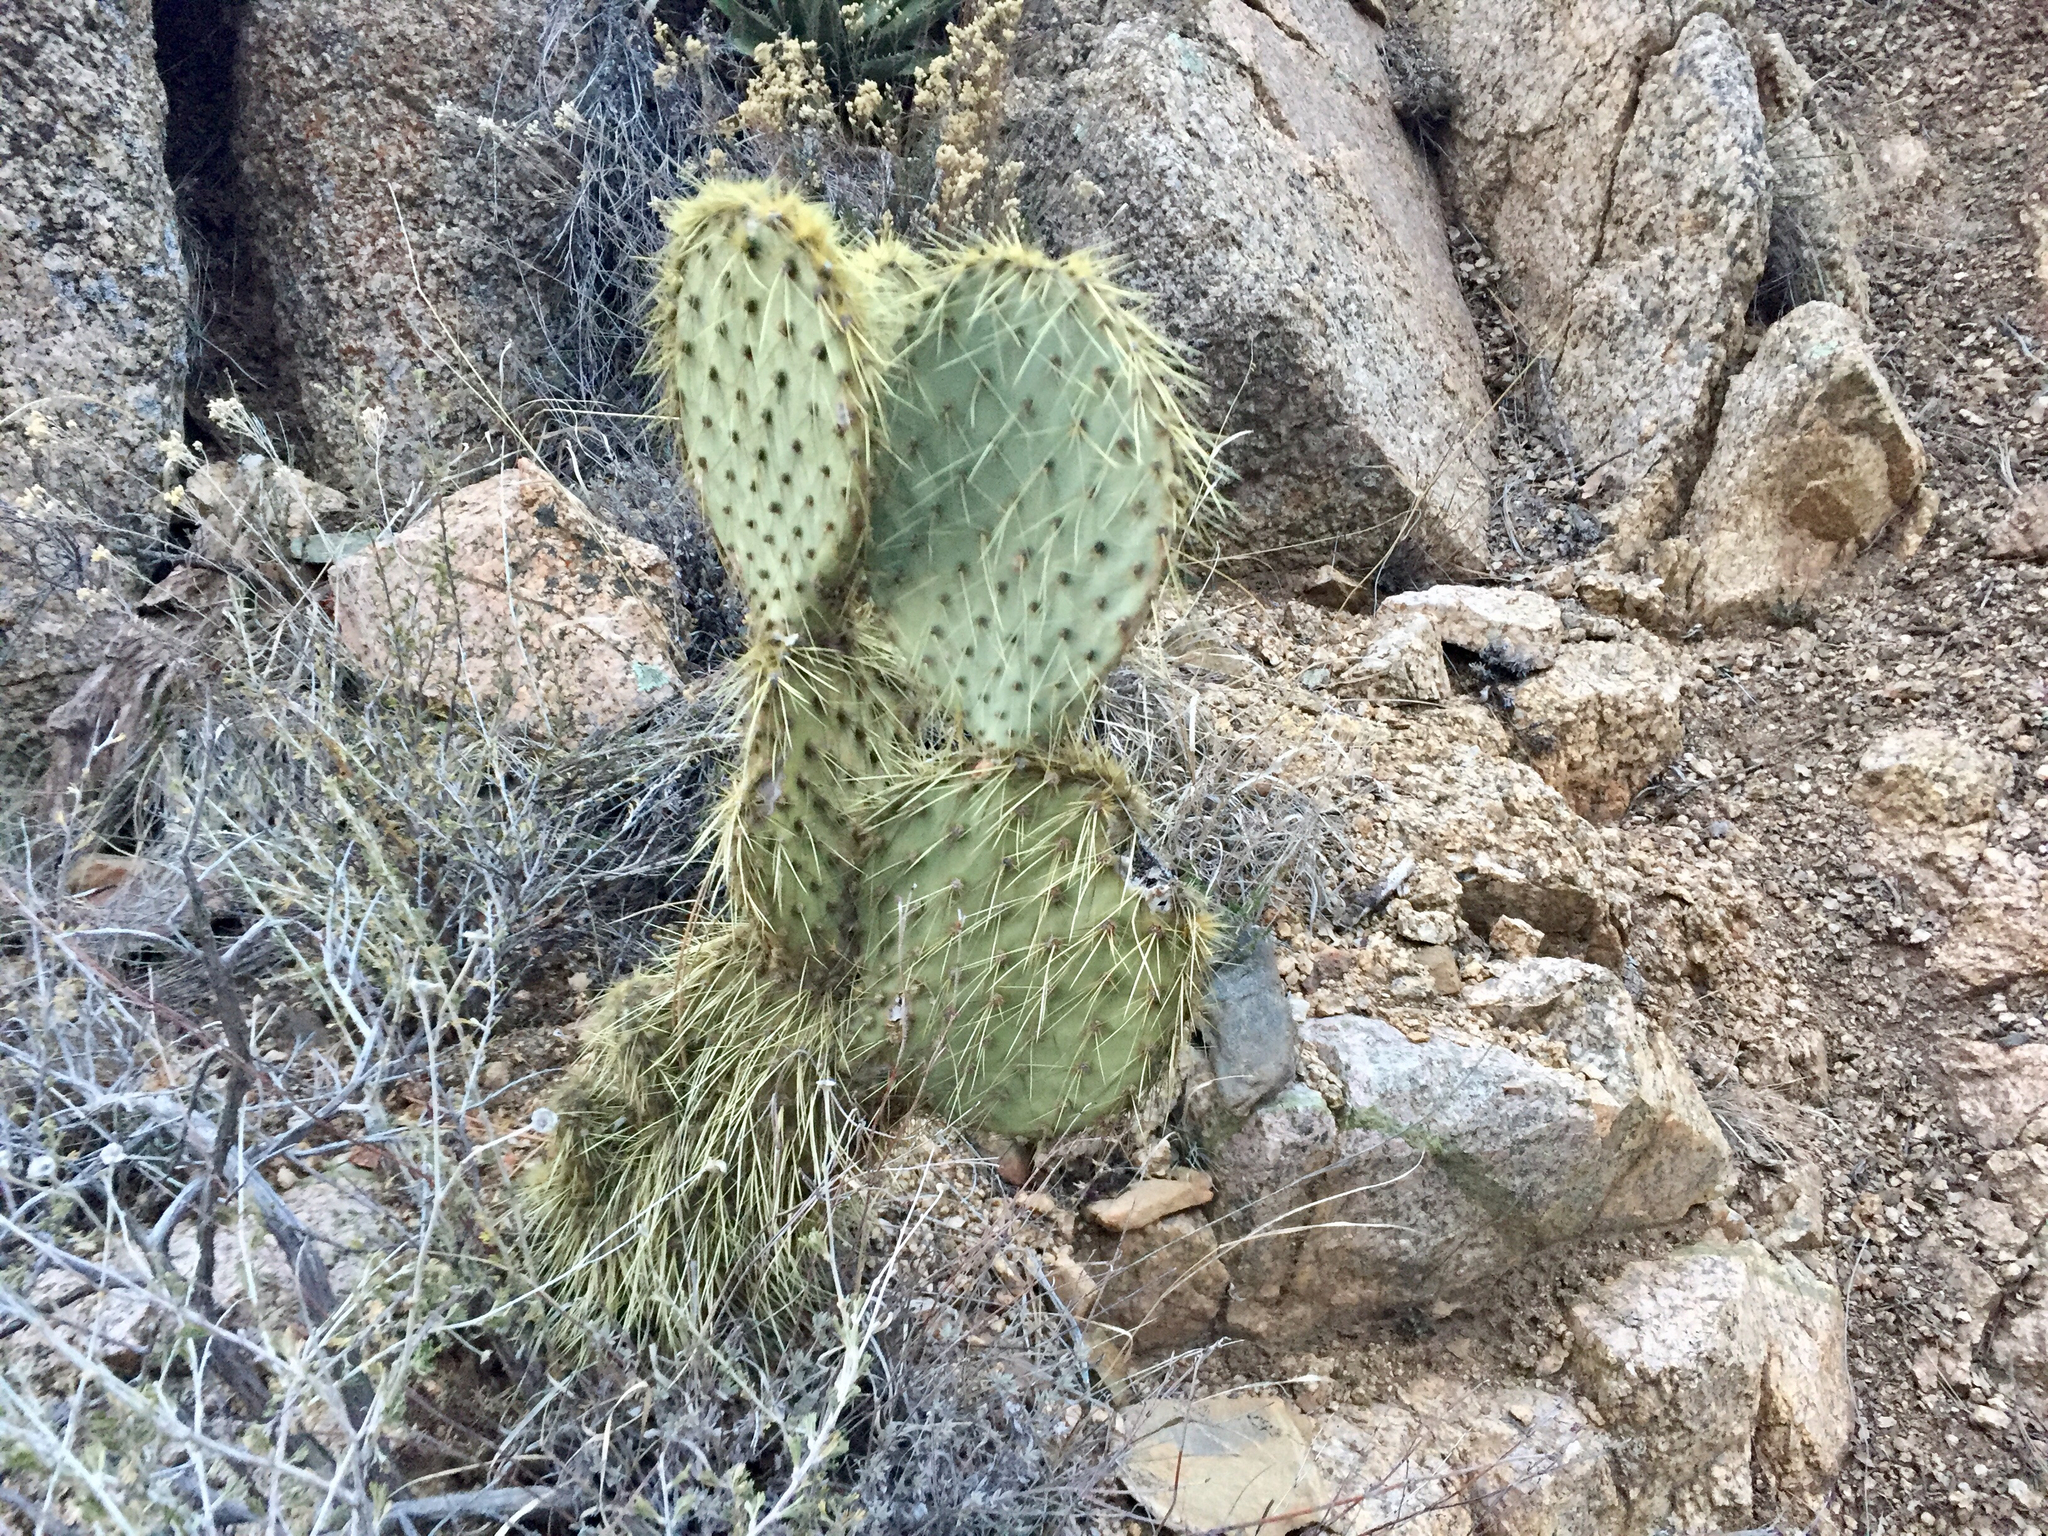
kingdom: Plantae
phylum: Tracheophyta
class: Magnoliopsida
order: Caryophyllales
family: Cactaceae
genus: Opuntia
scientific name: Opuntia chlorotica
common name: Dollar-joint prickly-pear
